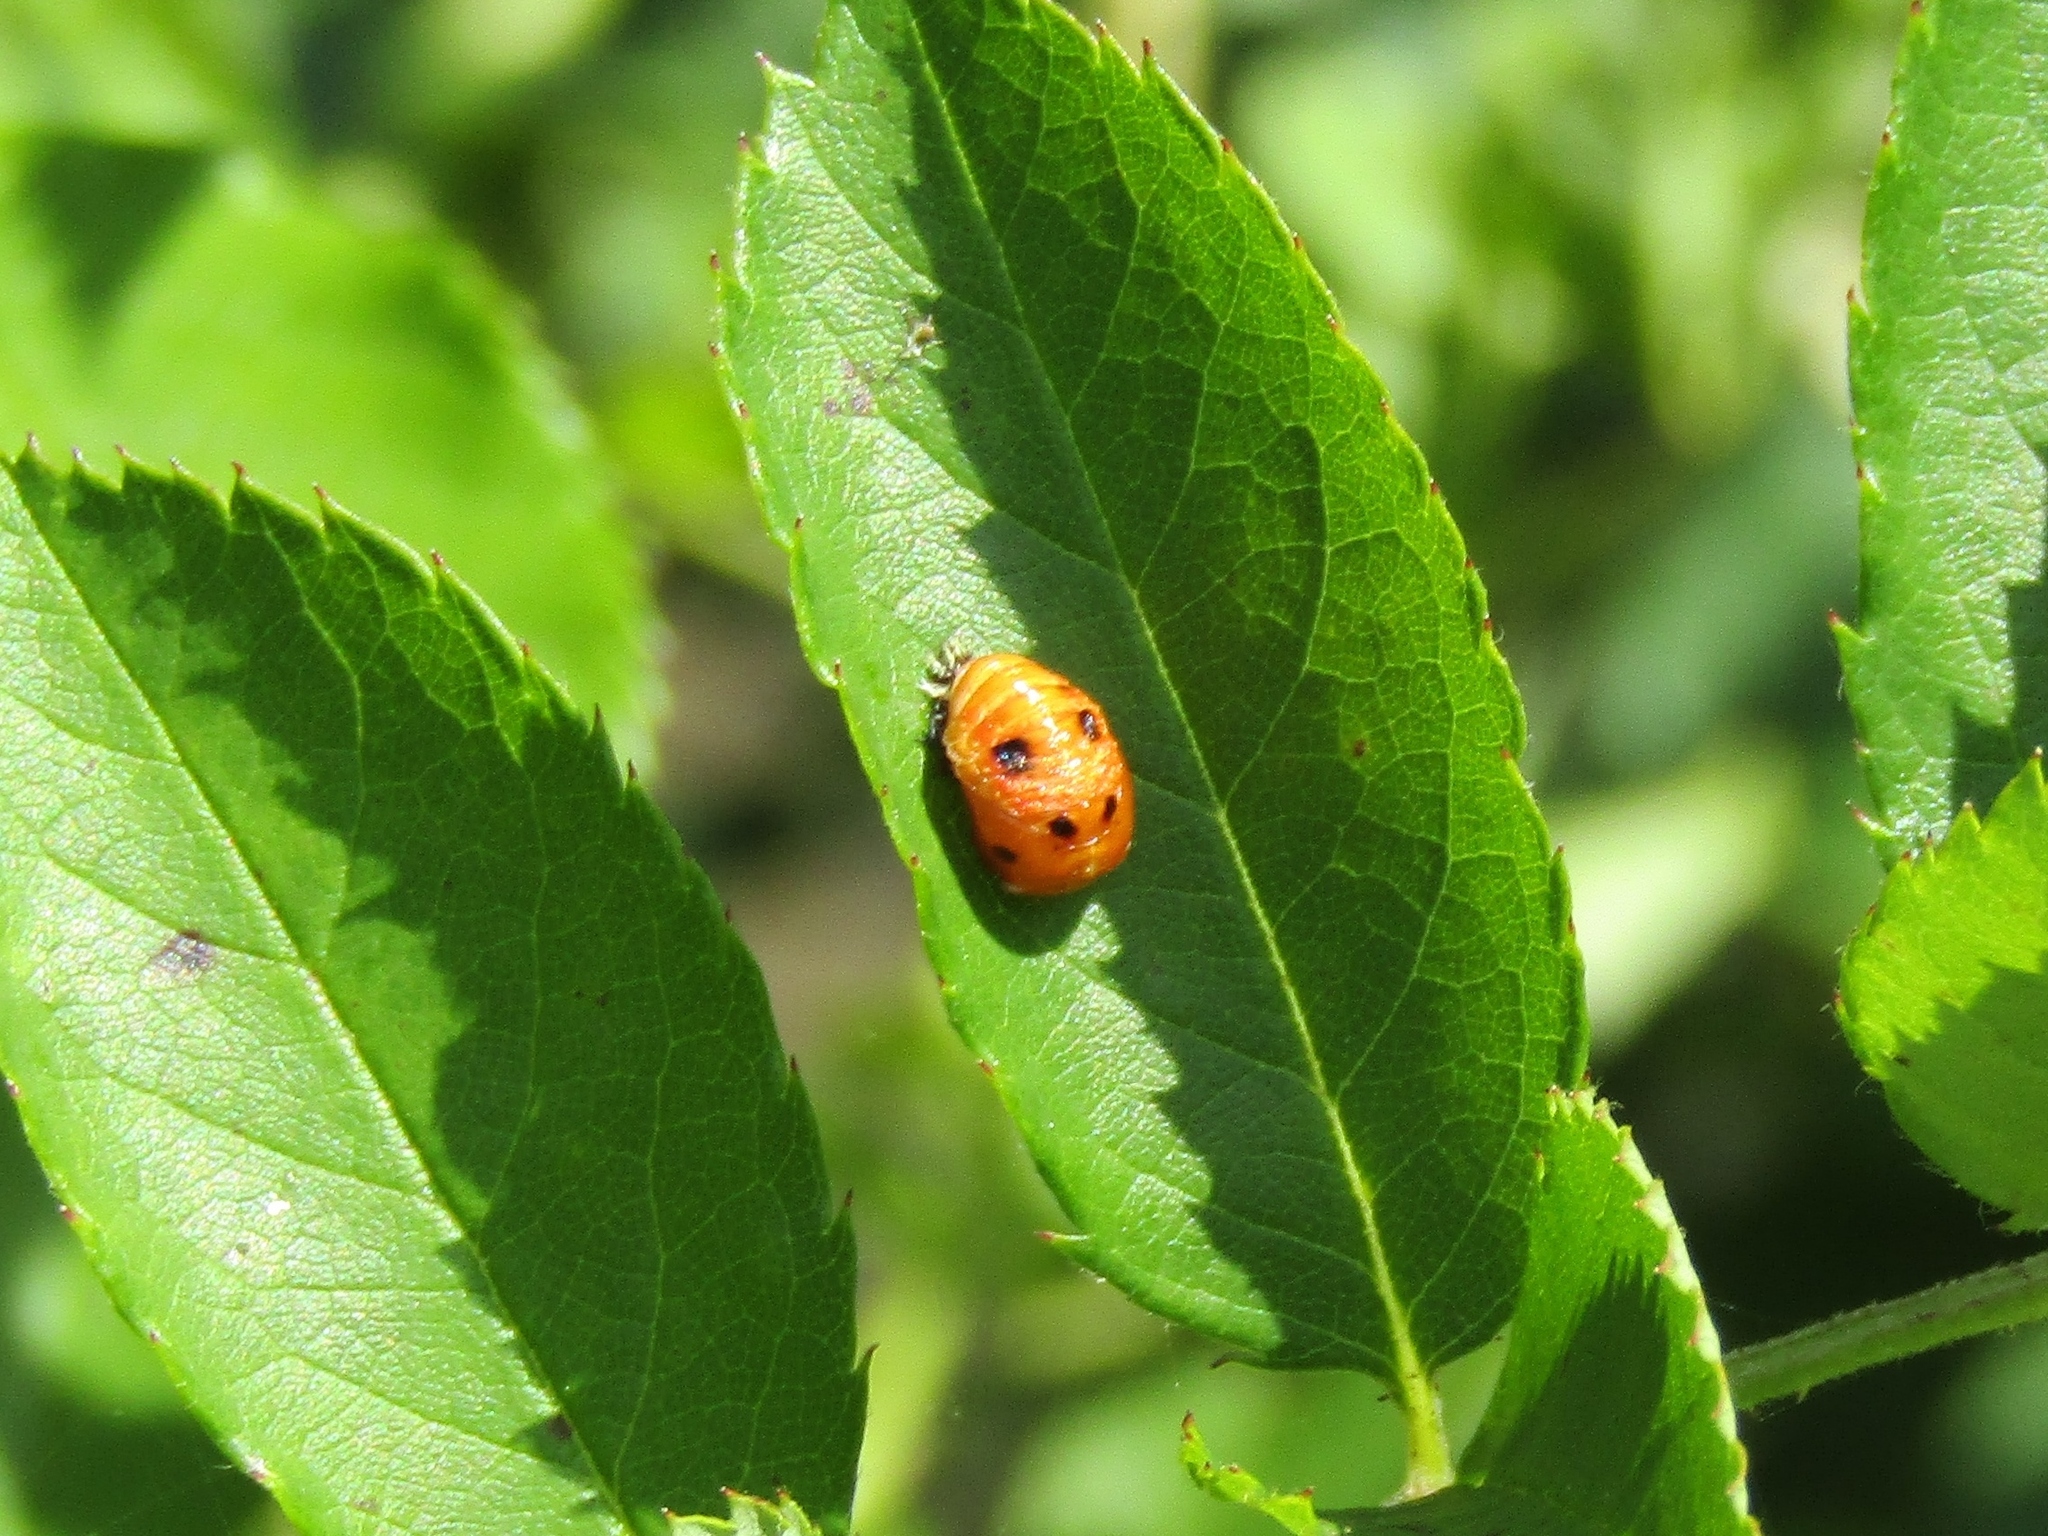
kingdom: Animalia
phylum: Arthropoda
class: Insecta
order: Coleoptera
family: Coccinellidae
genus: Harmonia
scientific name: Harmonia axyridis
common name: Harlequin ladybird
